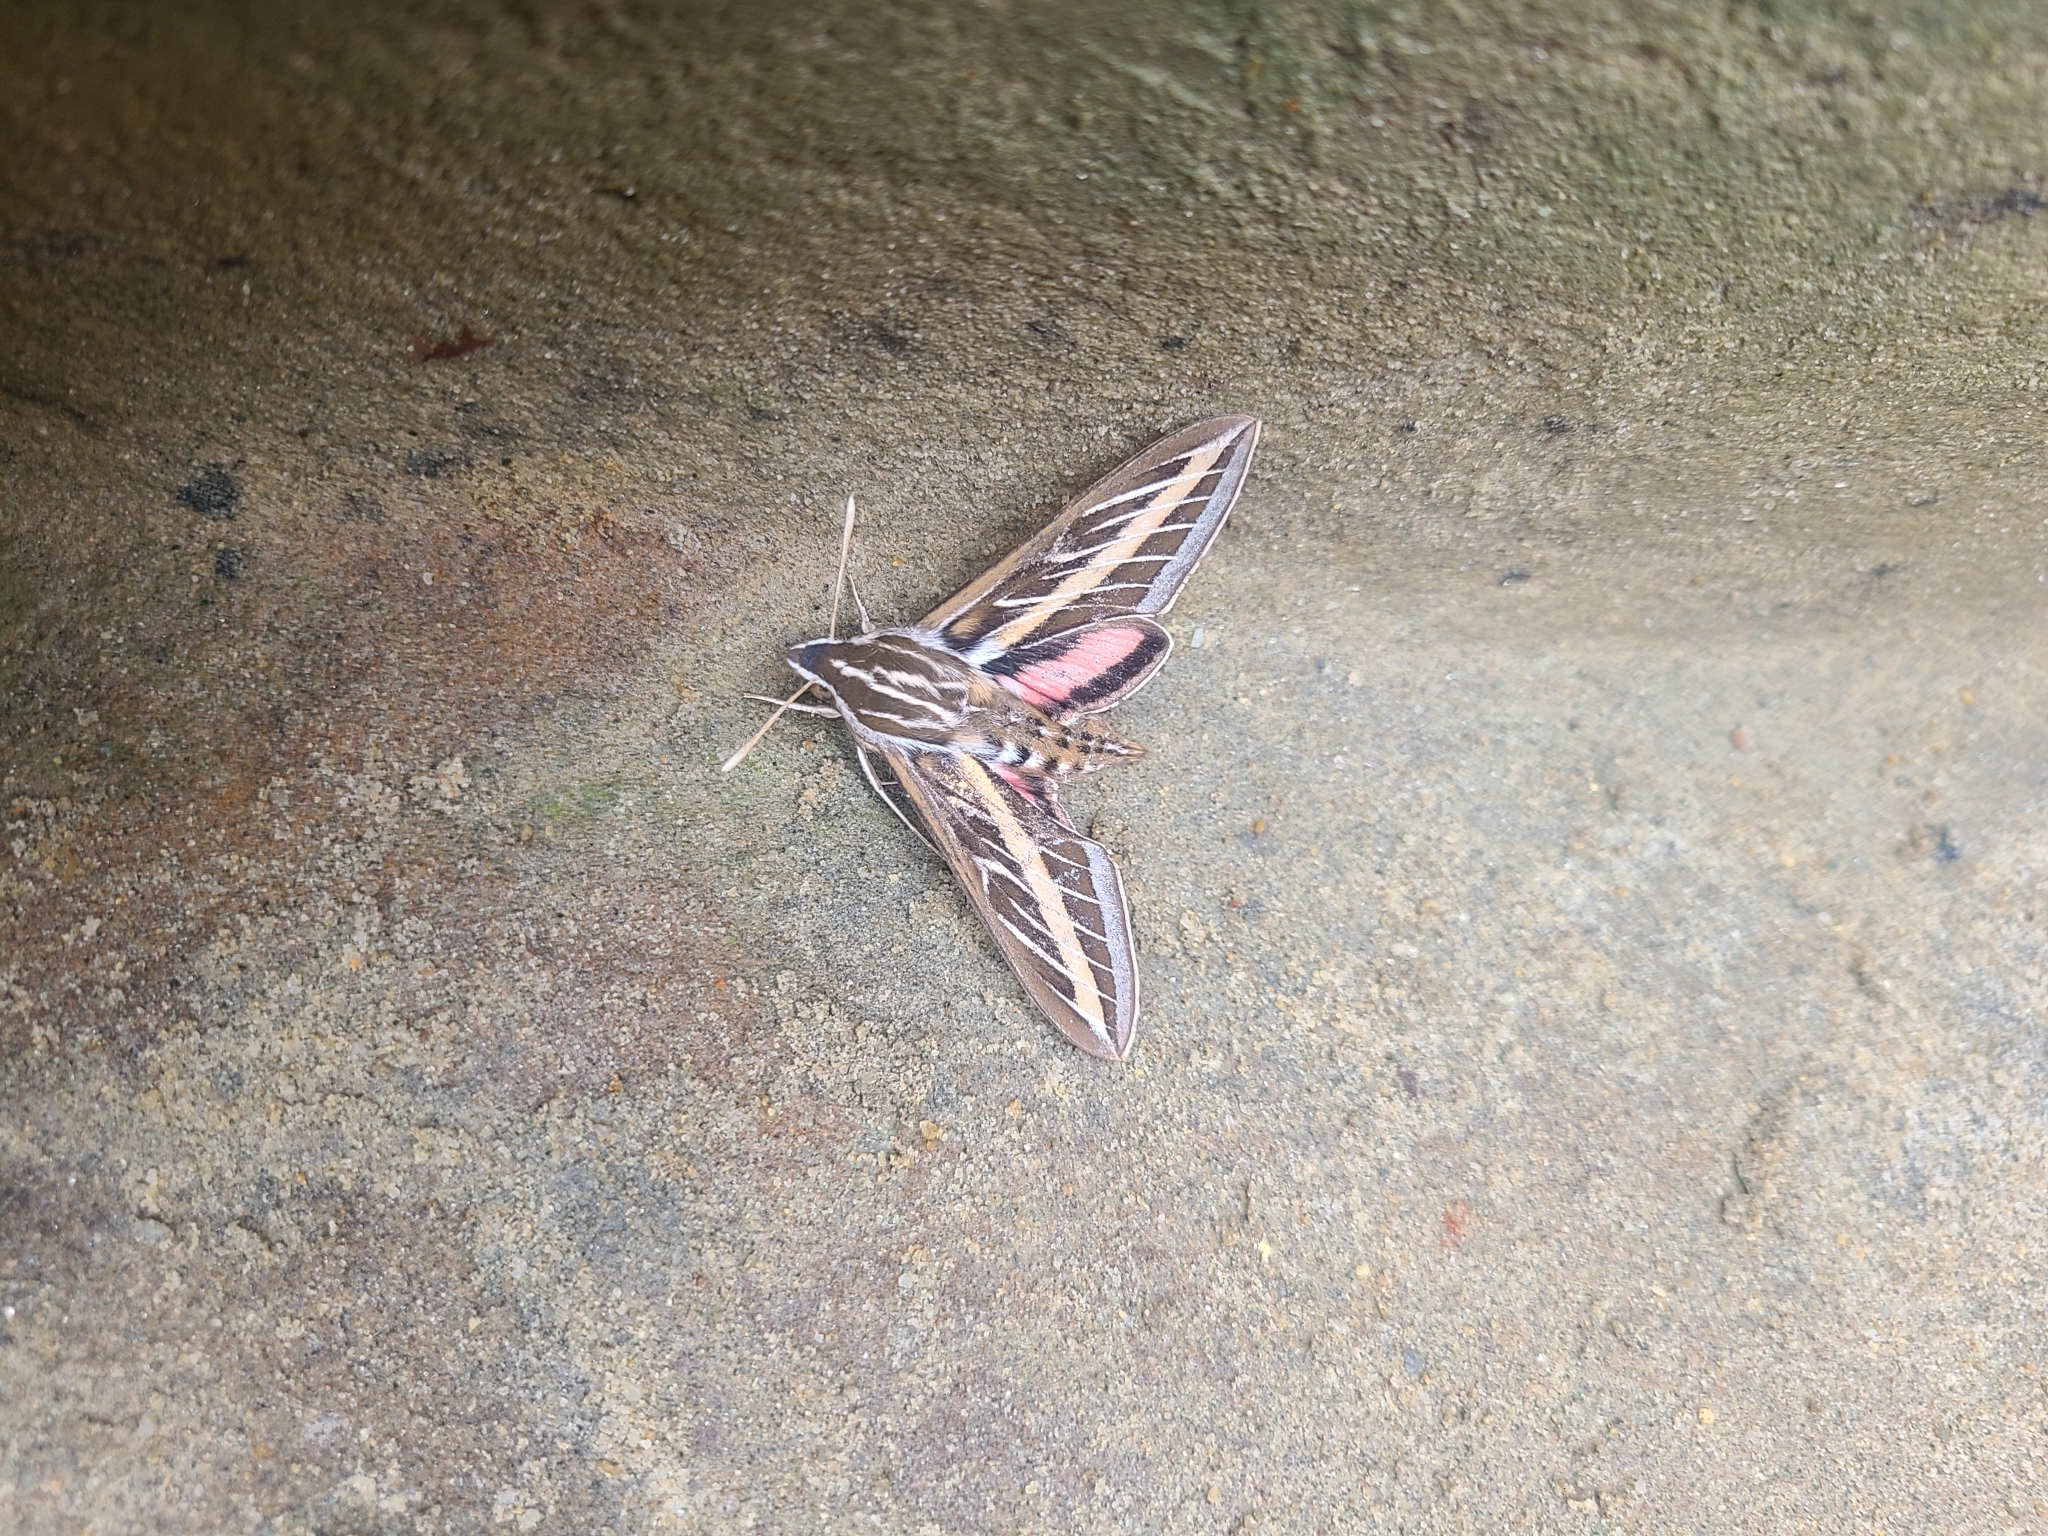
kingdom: Animalia
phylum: Arthropoda
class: Insecta
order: Lepidoptera
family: Sphingidae
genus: Hyles
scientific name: Hyles lineata
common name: White-lined sphinx
